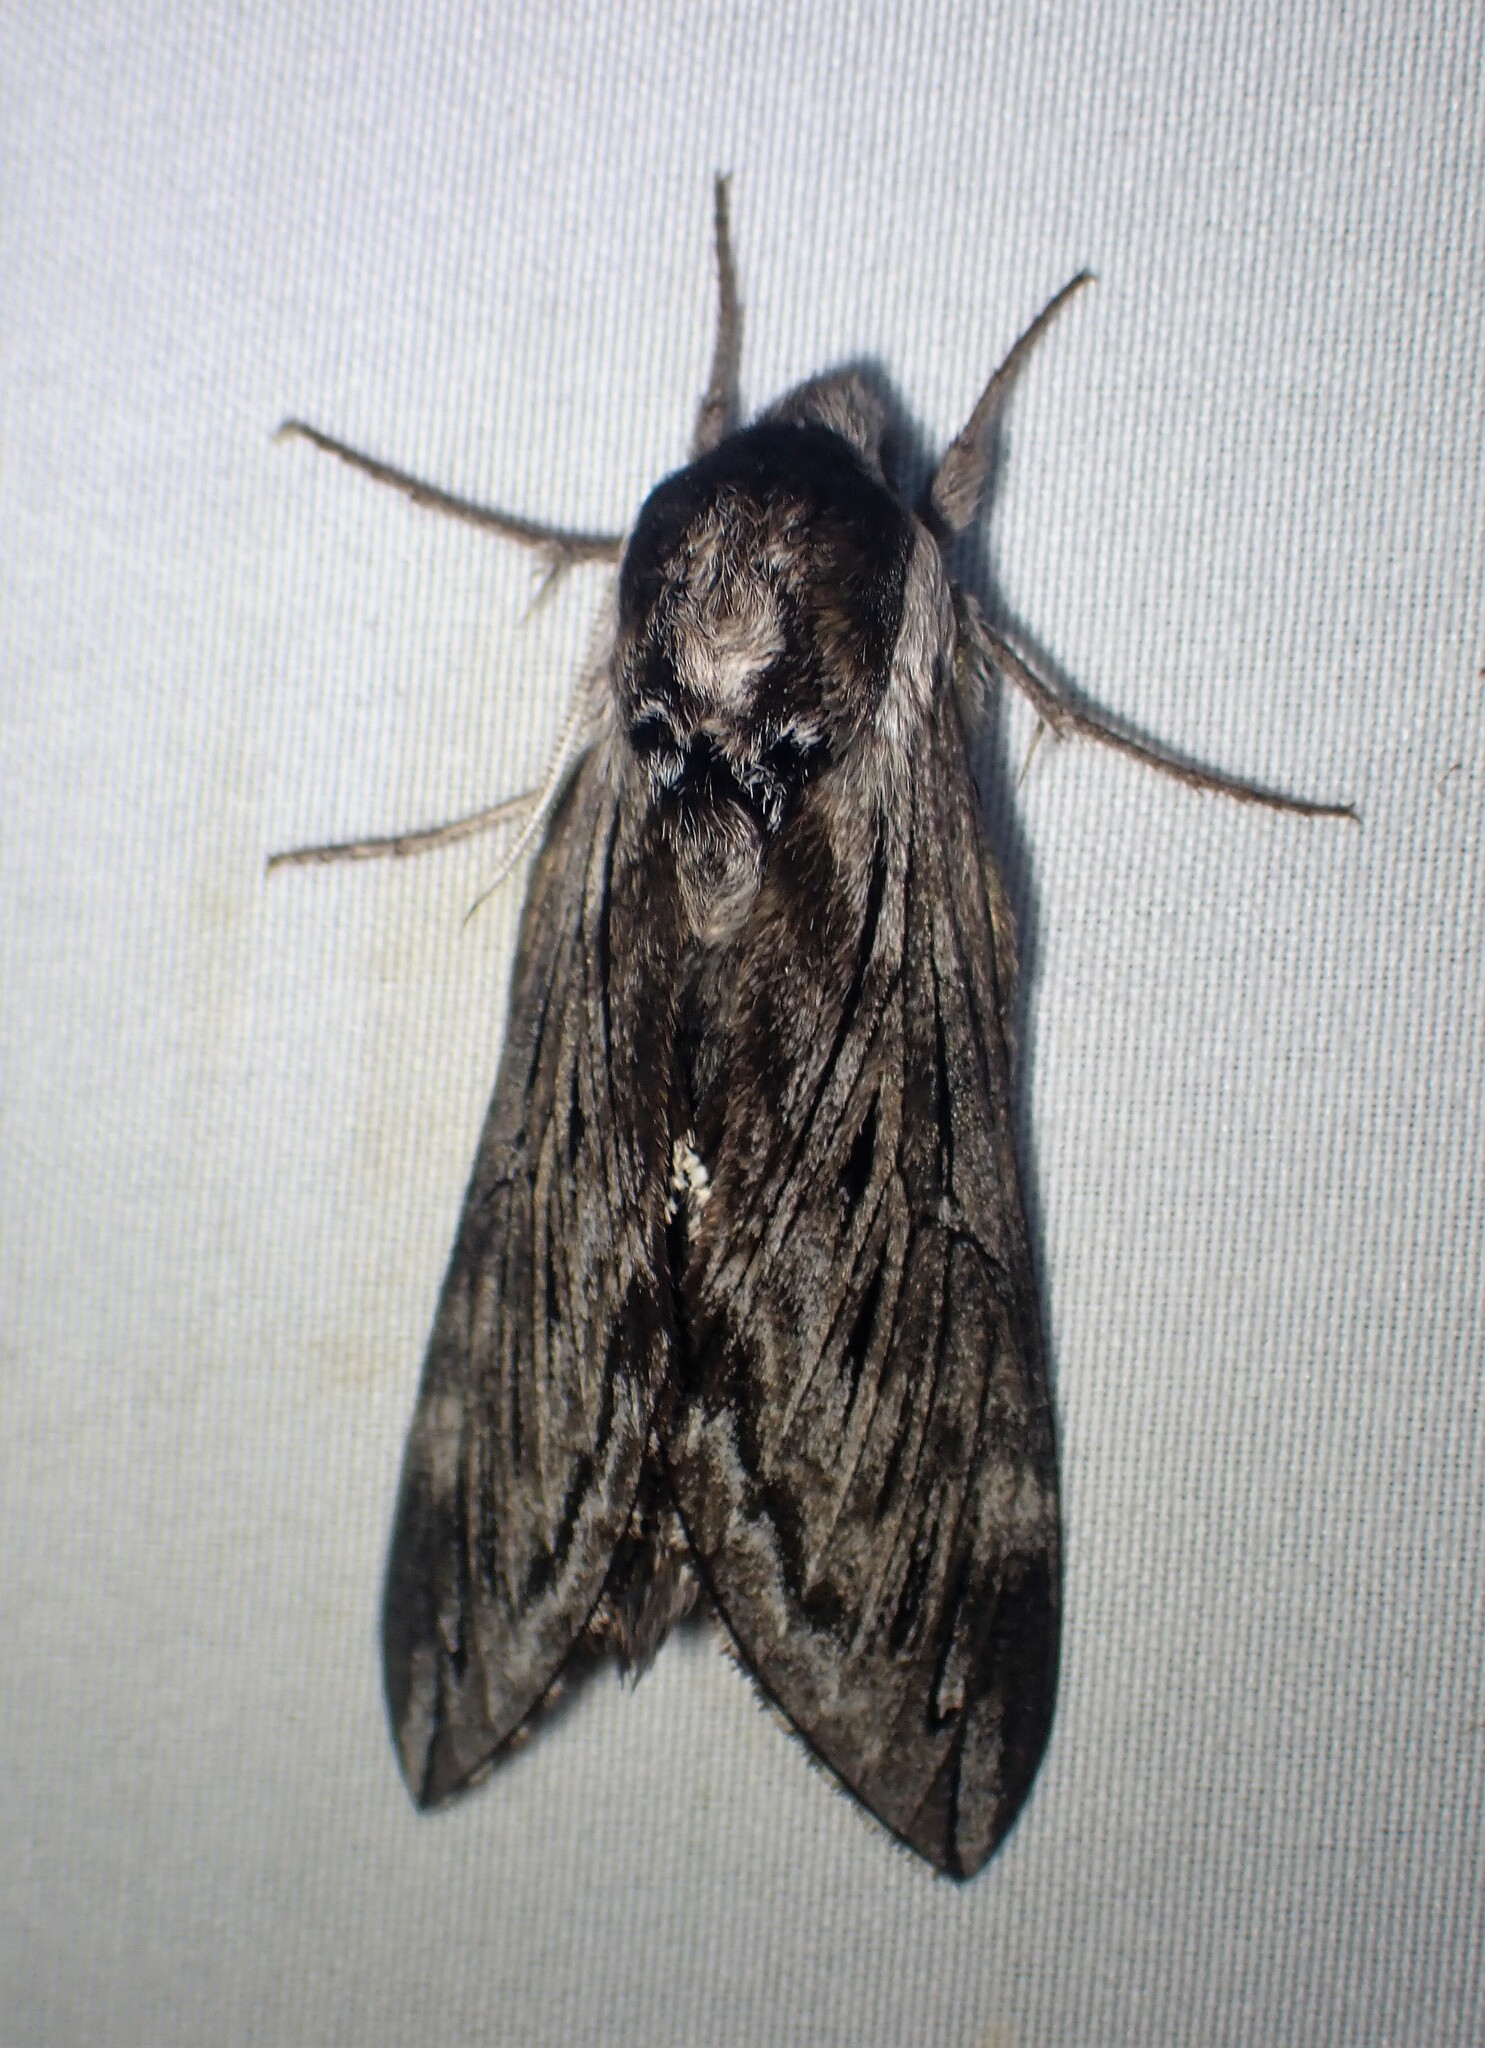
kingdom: Animalia
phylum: Arthropoda
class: Insecta
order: Lepidoptera
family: Sphingidae
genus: Sphinx
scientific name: Sphinx poecila
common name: Northern apple sphinx
